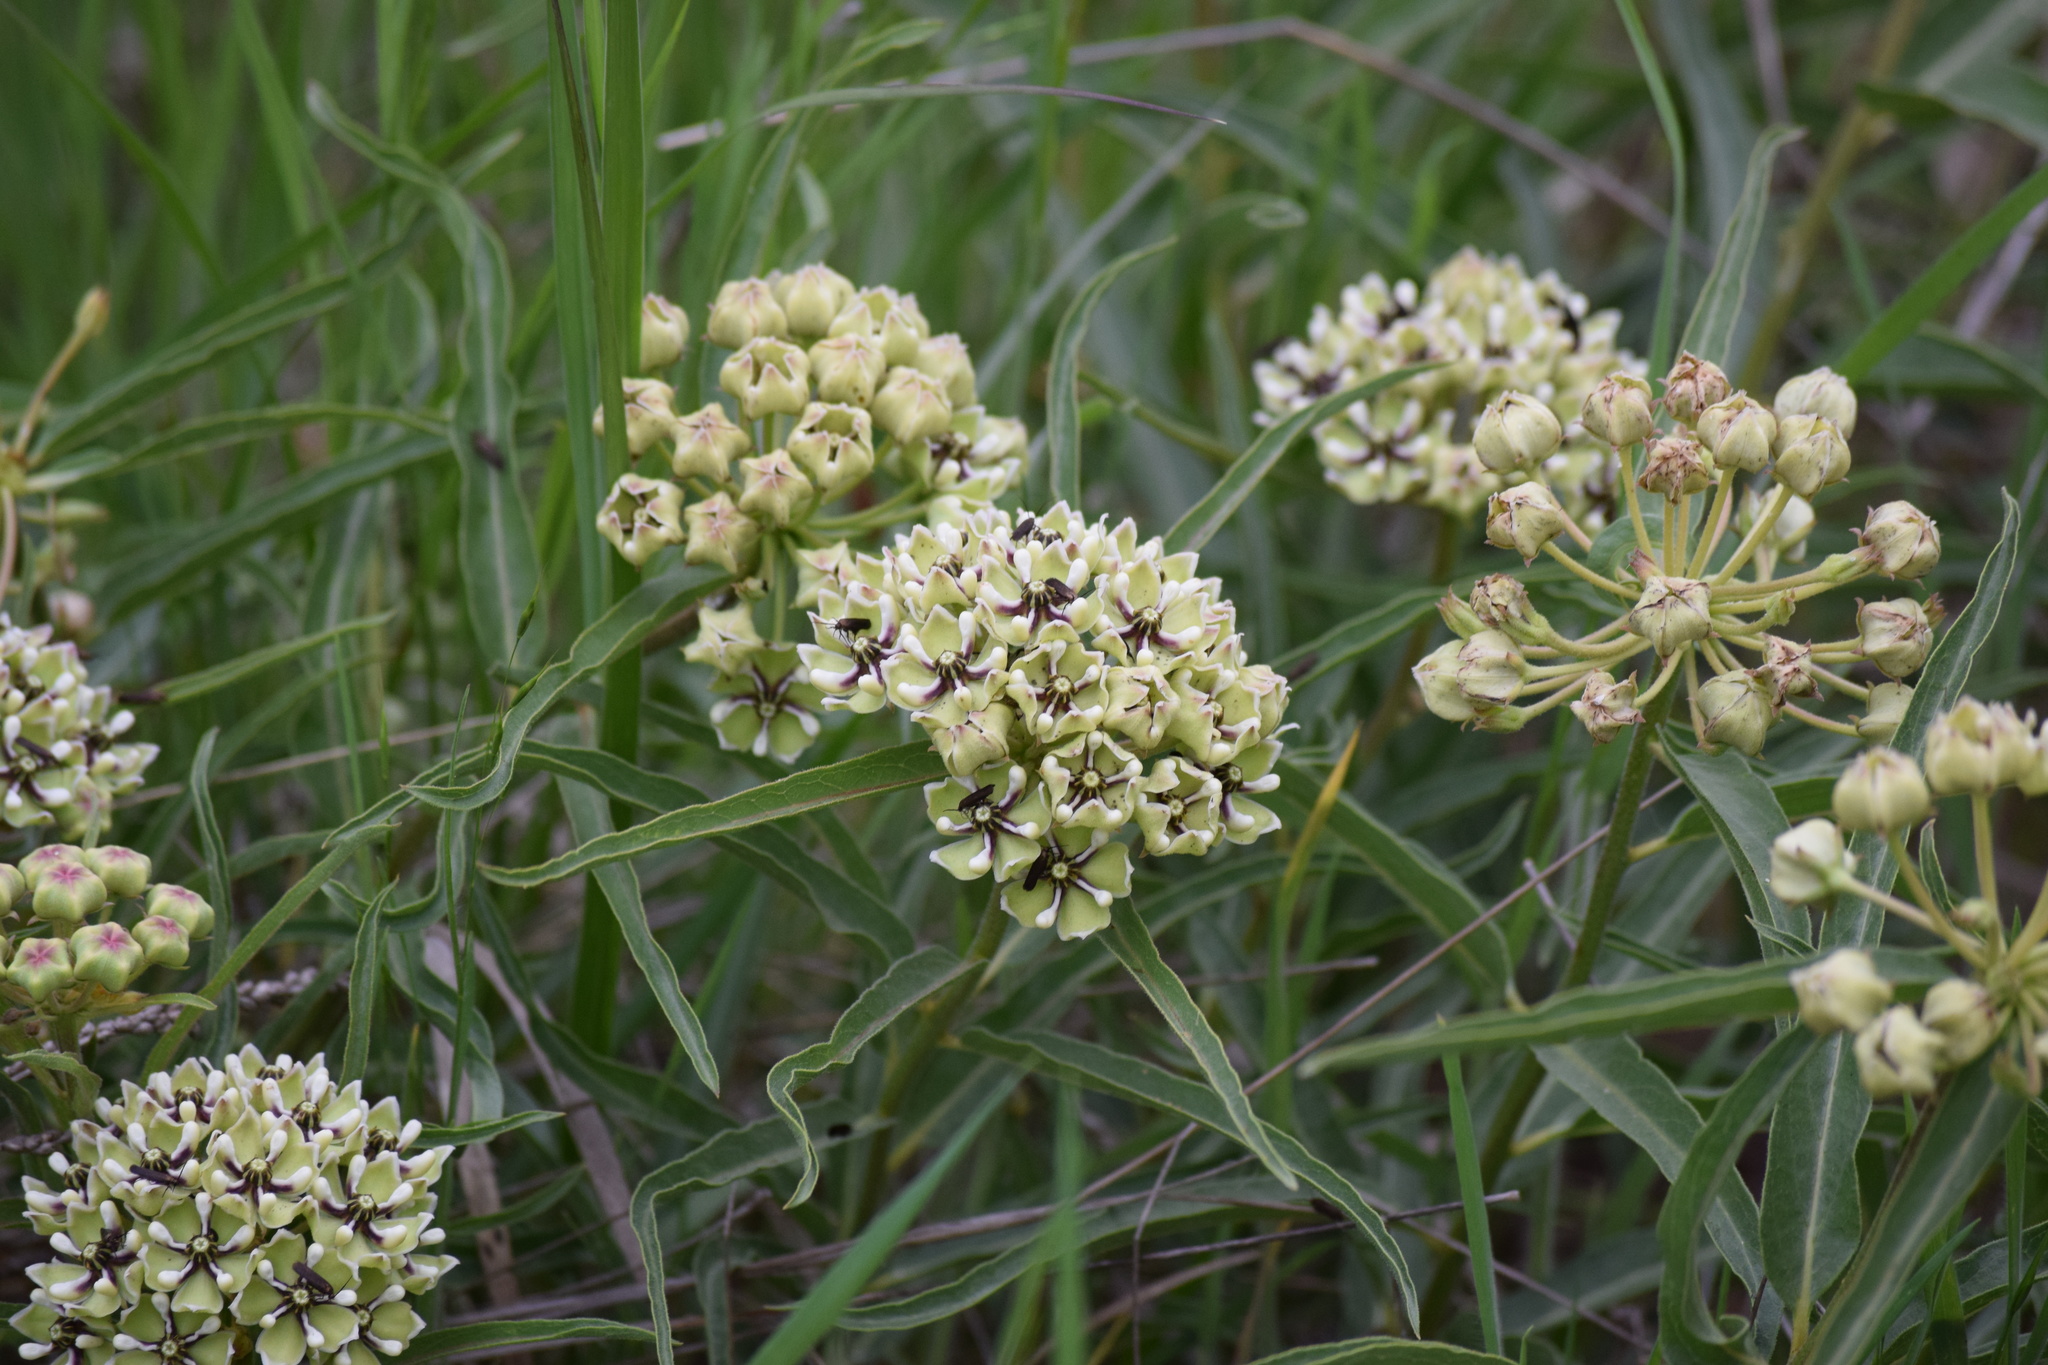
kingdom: Plantae
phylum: Tracheophyta
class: Magnoliopsida
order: Gentianales
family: Apocynaceae
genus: Asclepias
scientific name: Asclepias asperula
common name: Antelope horns
